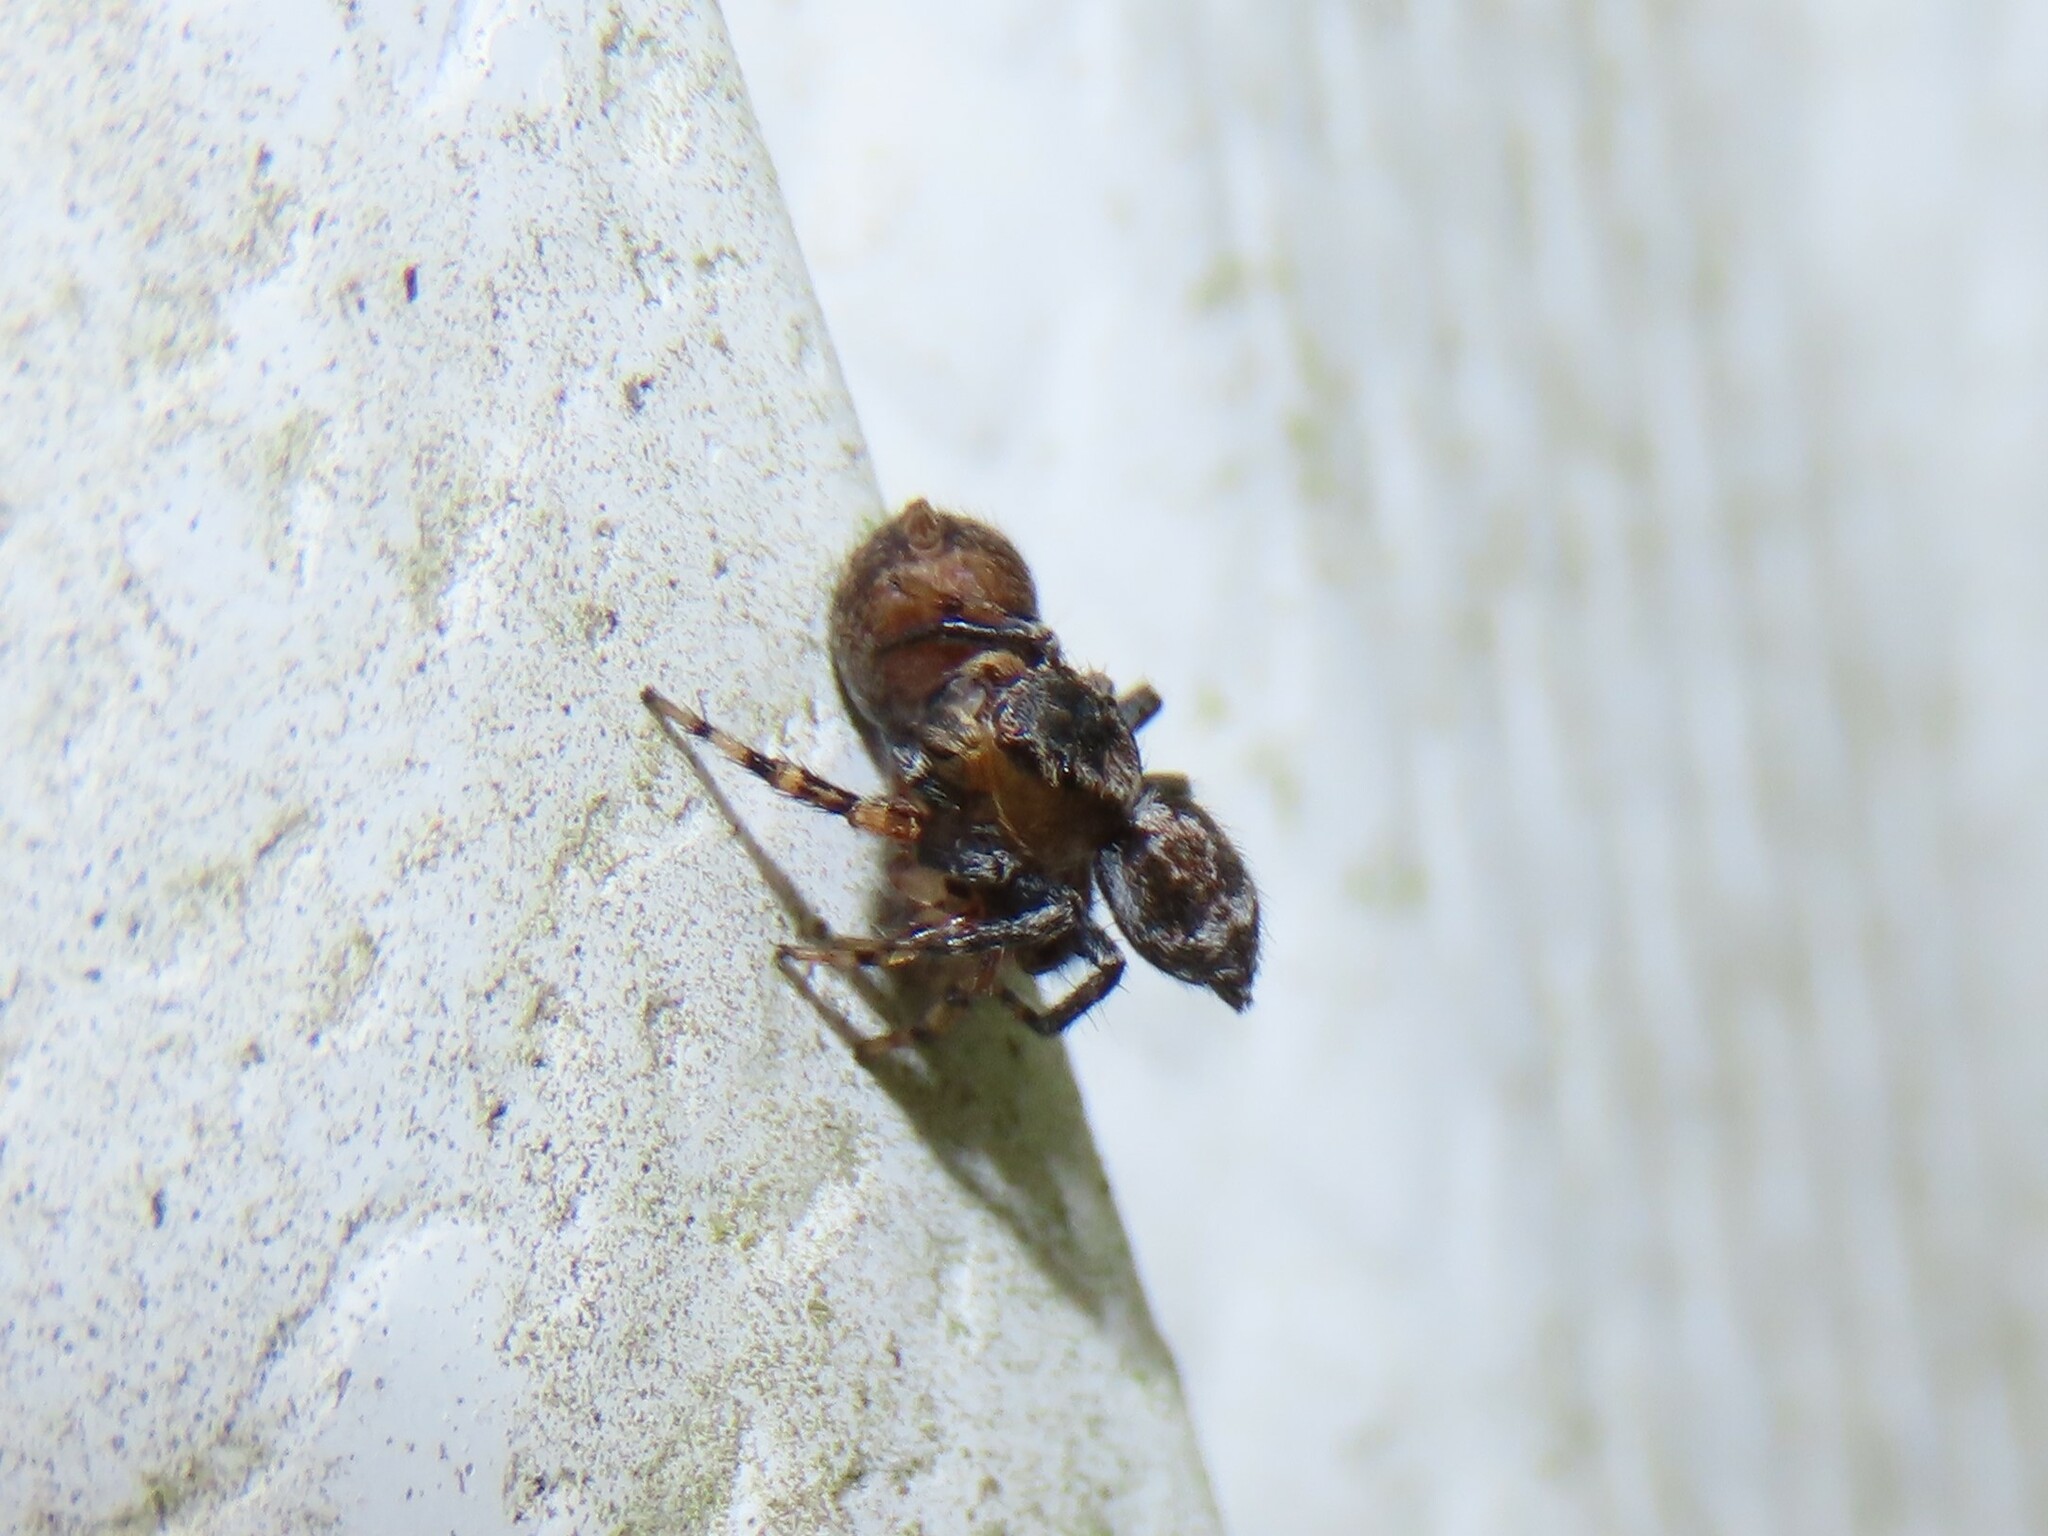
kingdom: Animalia
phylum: Arthropoda
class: Arachnida
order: Araneae
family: Salticidae
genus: Naphrys
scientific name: Naphrys pulex
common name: Flea jumping spider
